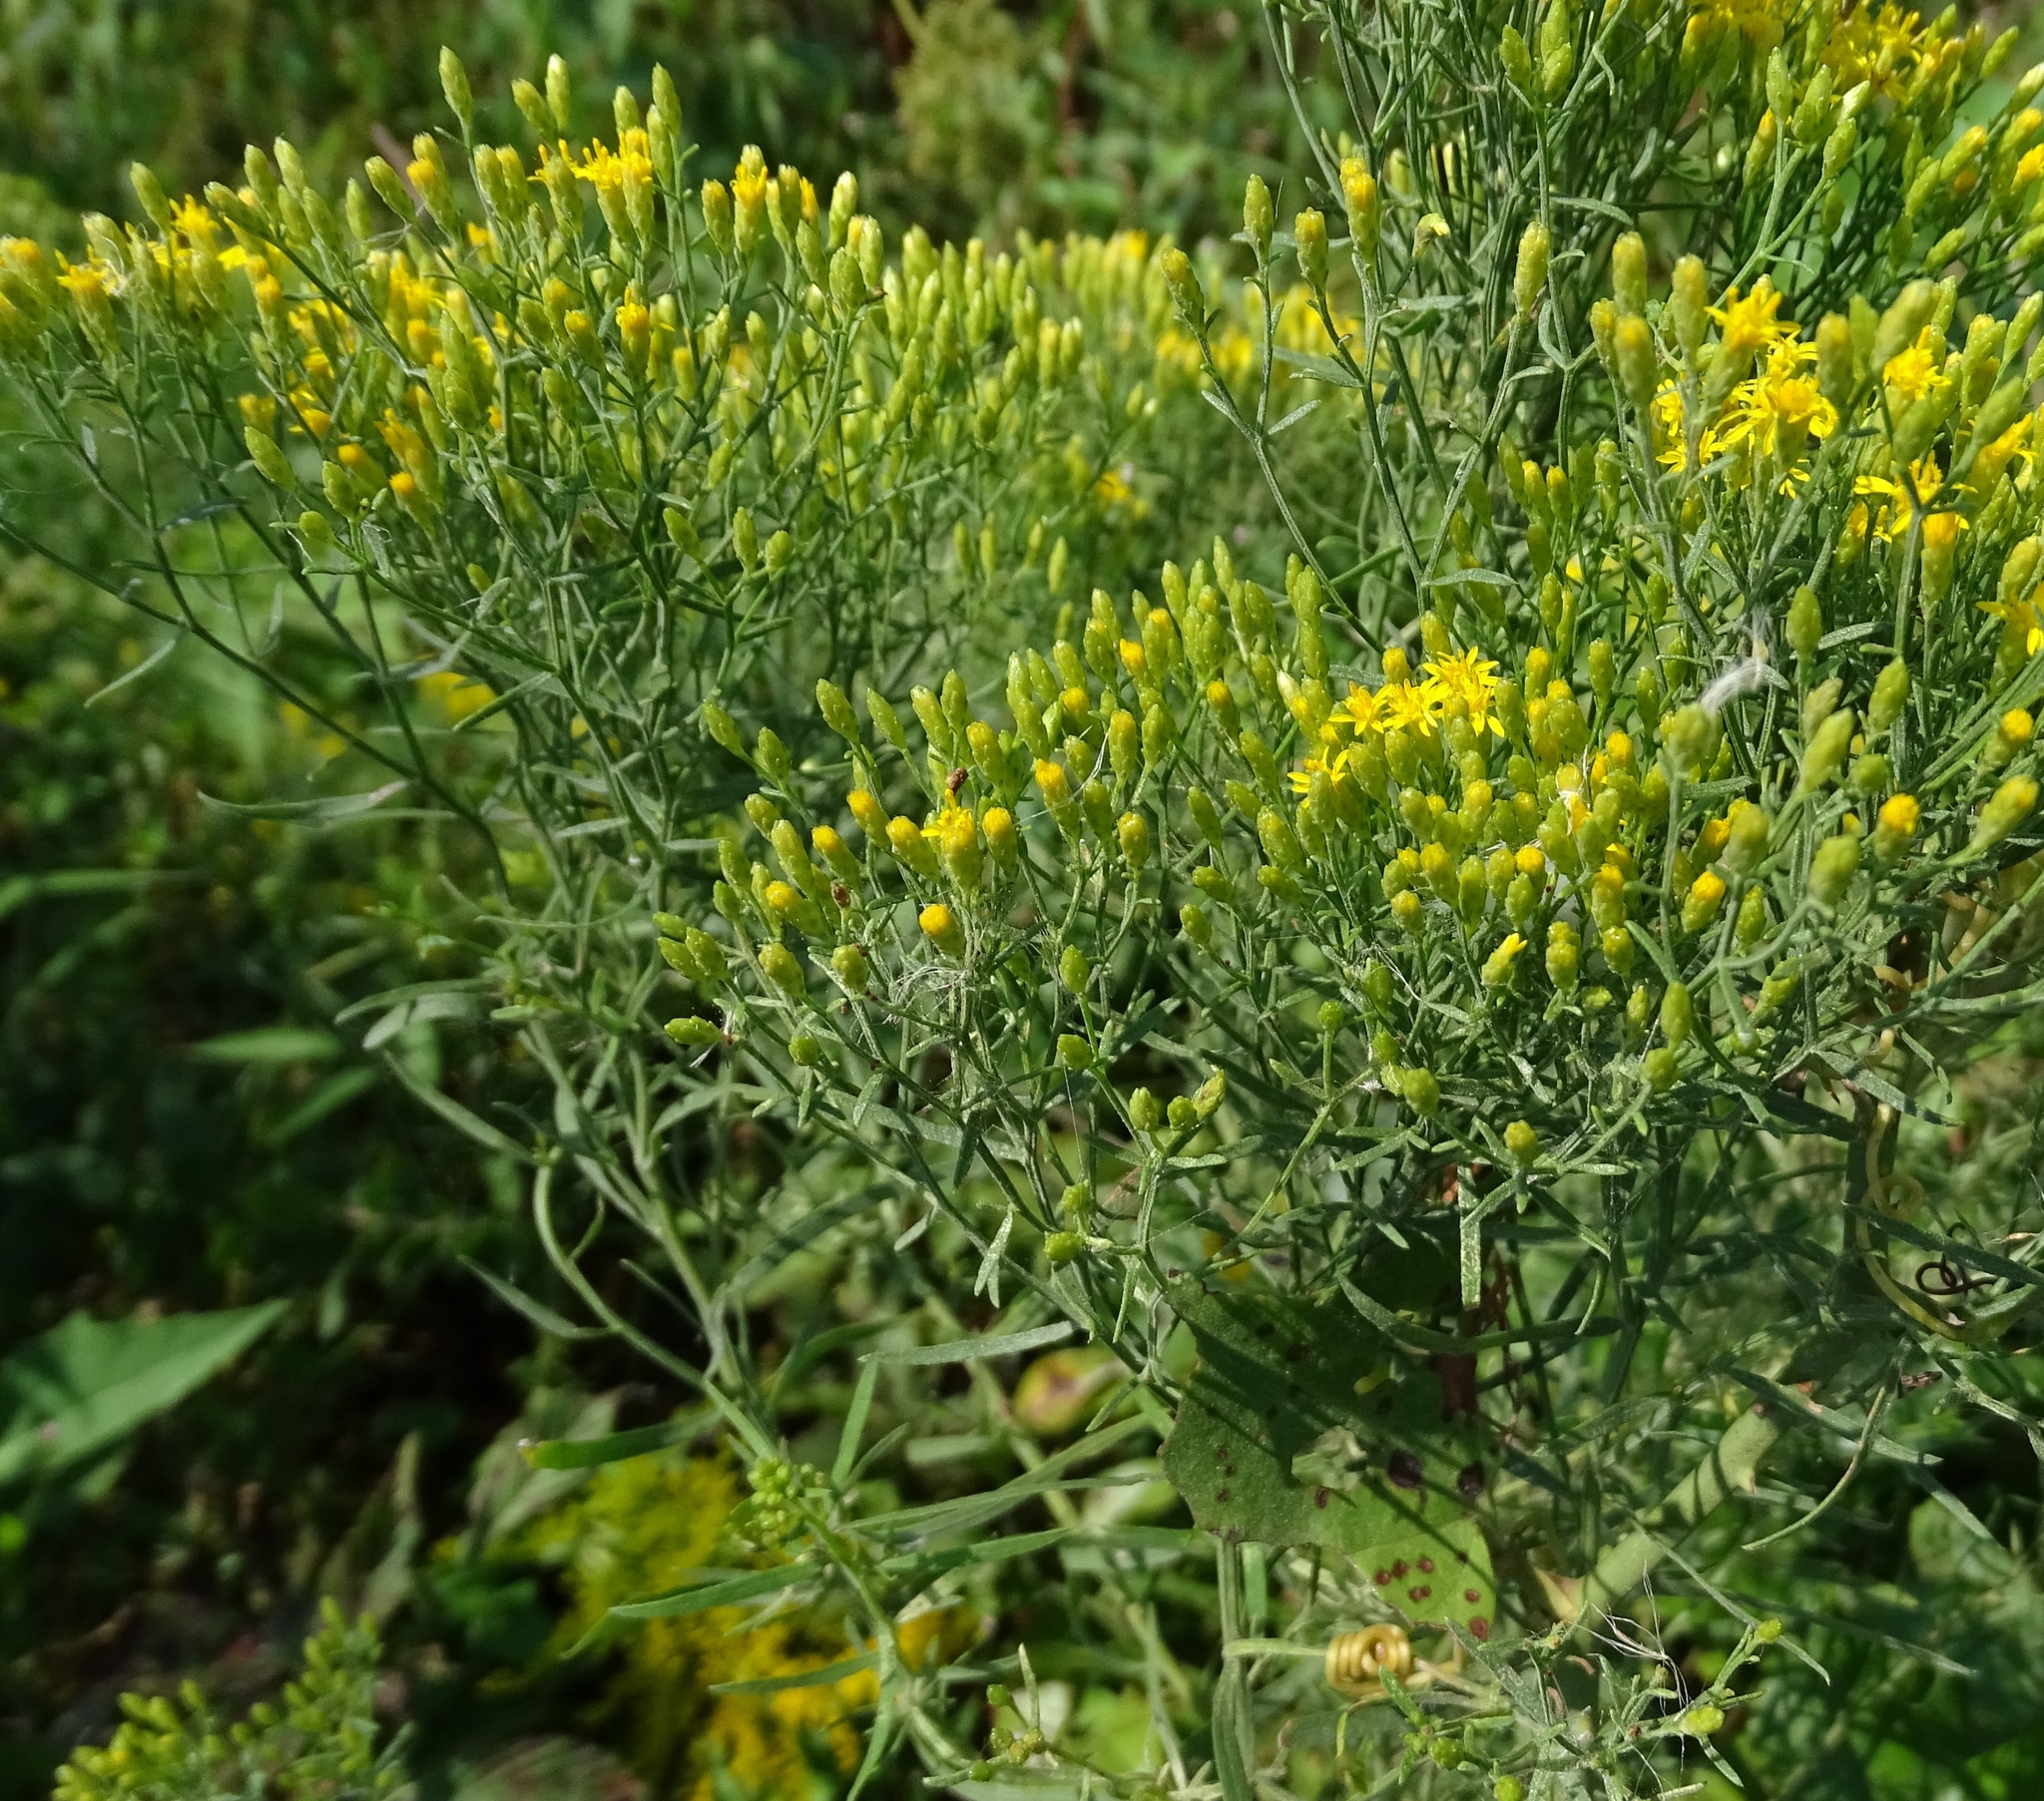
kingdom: Plantae
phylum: Tracheophyta
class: Magnoliopsida
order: Asterales
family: Asteraceae
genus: Euthamia
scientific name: Euthamia caroliniana
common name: Coastal plain goldentop
